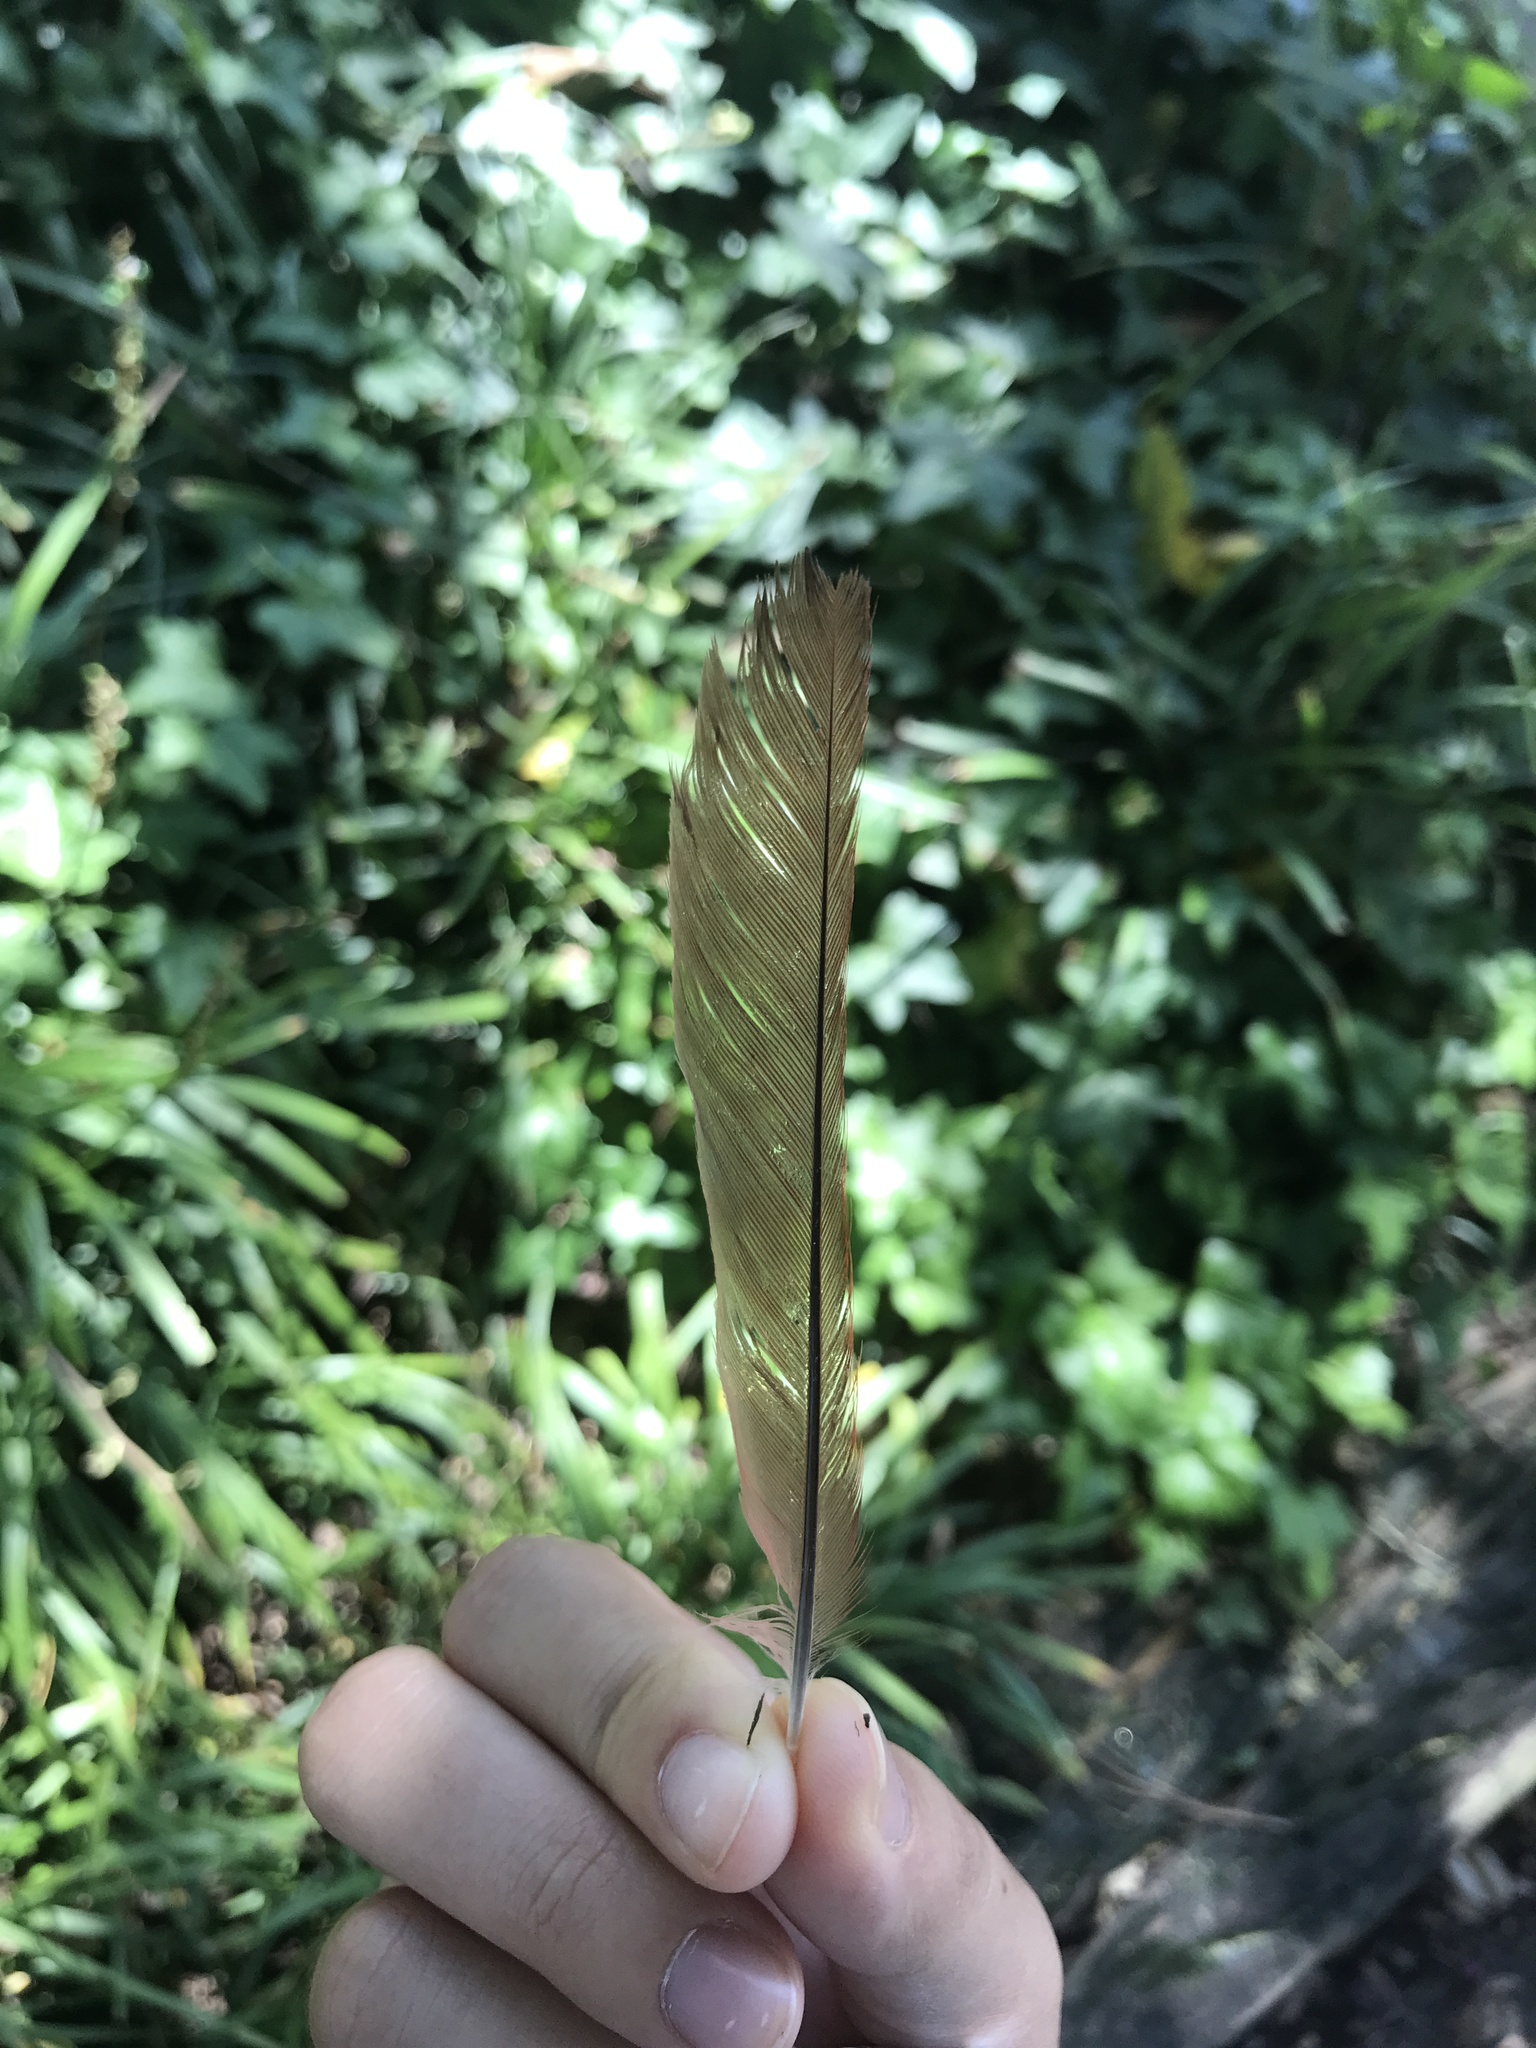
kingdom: Animalia
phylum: Chordata
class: Aves
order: Passeriformes
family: Cardinalidae
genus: Cardinalis
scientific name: Cardinalis cardinalis
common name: Northern cardinal
